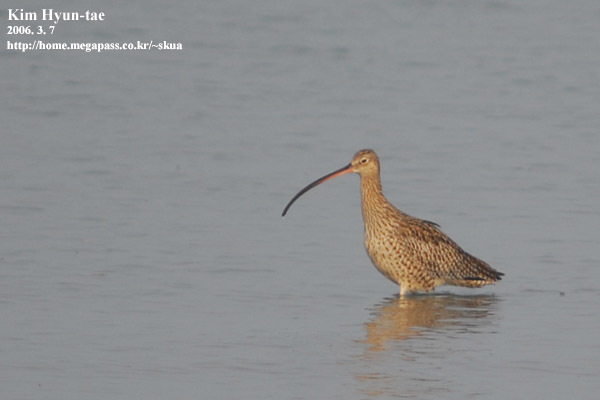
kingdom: Animalia
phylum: Chordata
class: Aves
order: Charadriiformes
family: Scolopacidae
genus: Numenius
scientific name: Numenius madagascariensis
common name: Far eastern curlew
